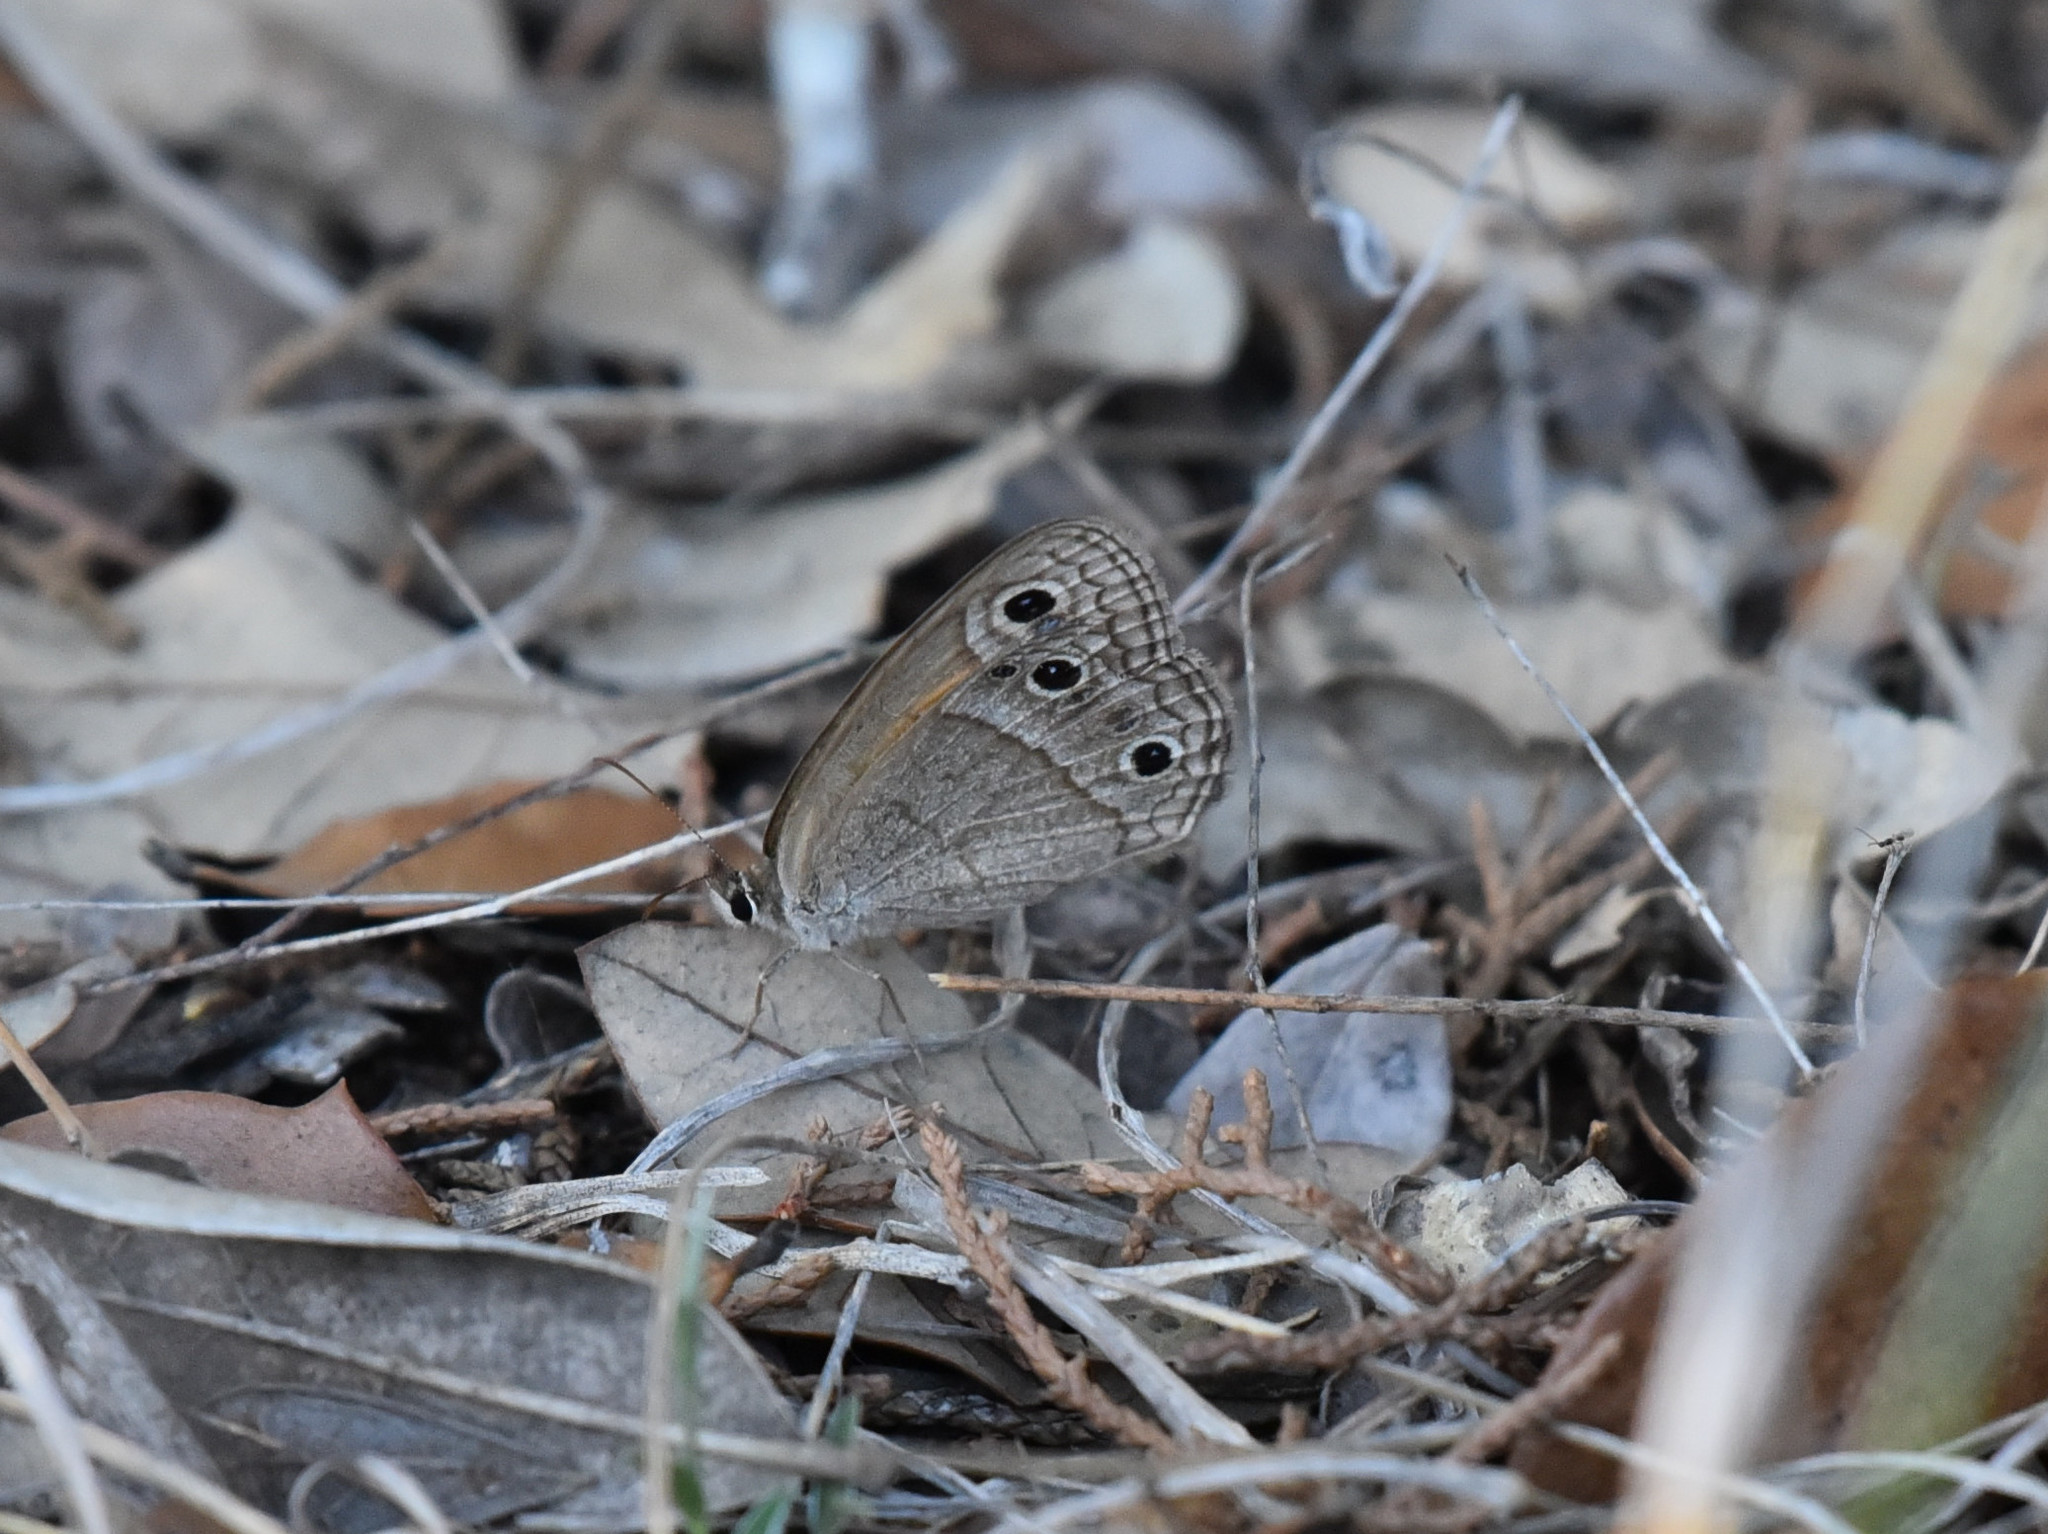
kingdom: Animalia
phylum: Arthropoda
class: Insecta
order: Lepidoptera
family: Nymphalidae
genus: Euptychia
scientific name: Euptychia Cissia rubricata
